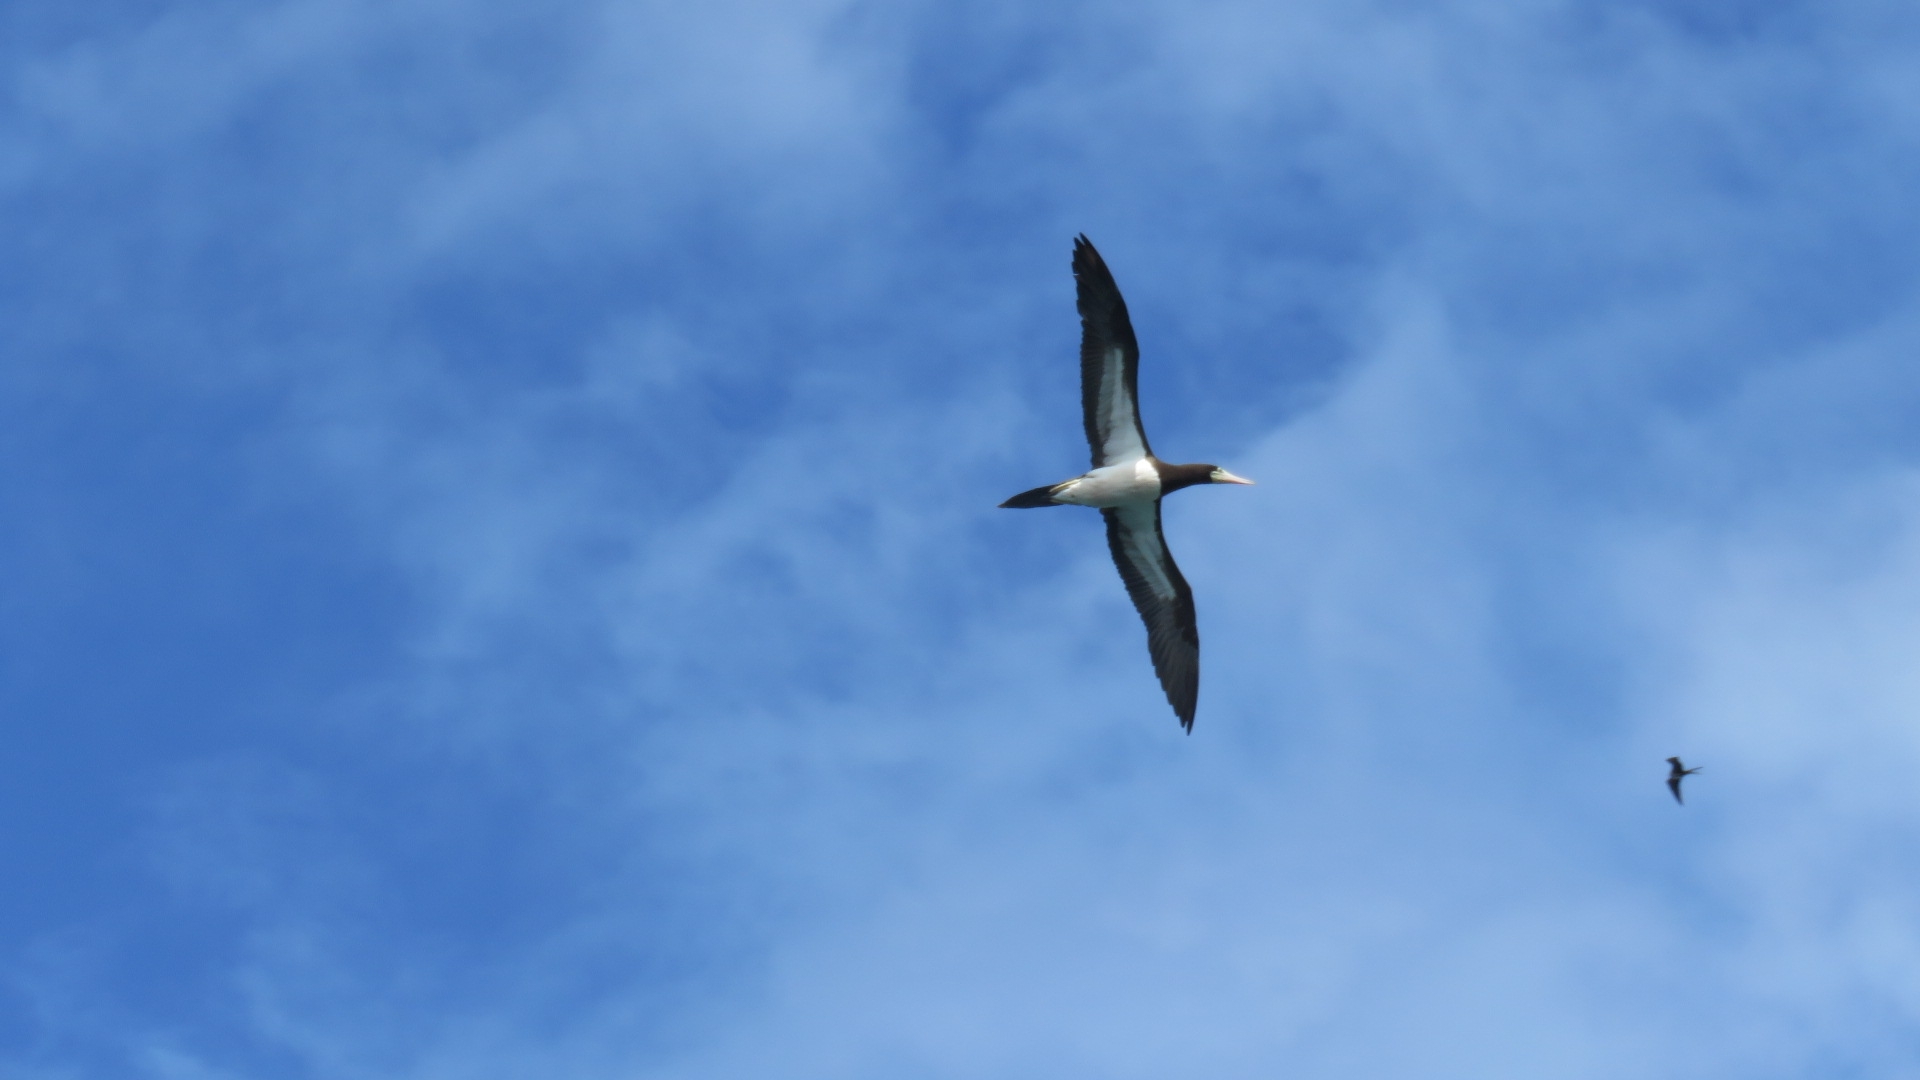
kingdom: Animalia
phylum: Chordata
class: Aves
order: Suliformes
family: Sulidae
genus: Sula
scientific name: Sula leucogaster
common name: Brown booby
